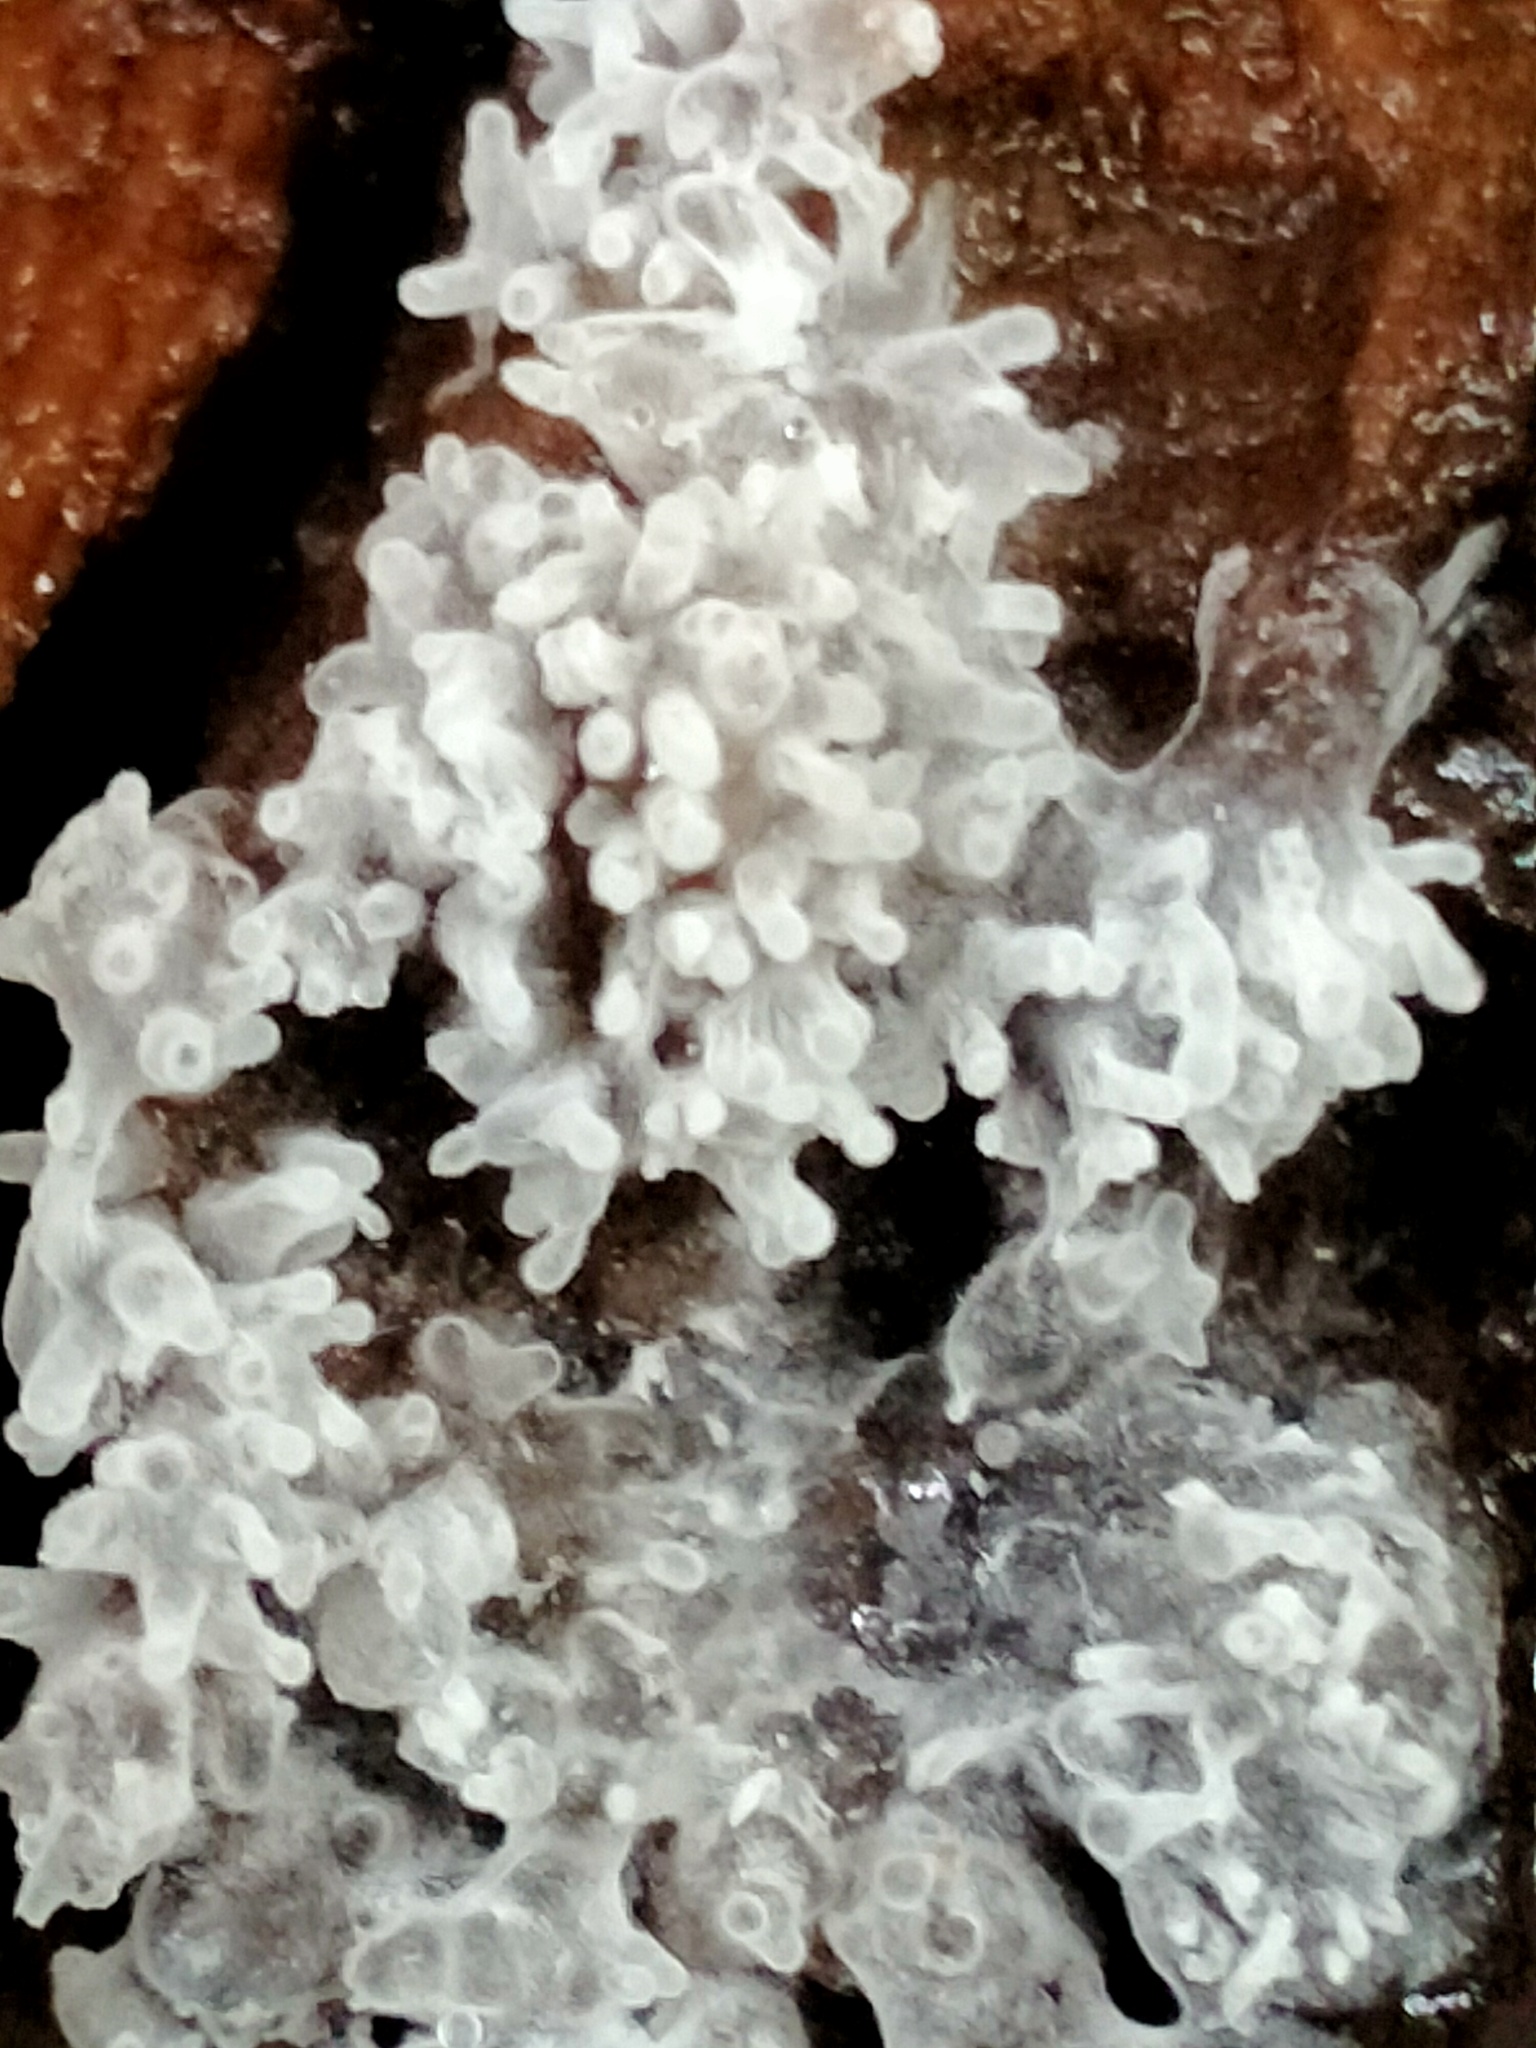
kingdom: Protozoa
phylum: Mycetozoa
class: Protosteliomycetes
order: Ceratiomyxales
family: Ceratiomyxaceae
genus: Ceratiomyxa
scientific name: Ceratiomyxa fruticulosa
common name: Honeycomb coral slime mold
